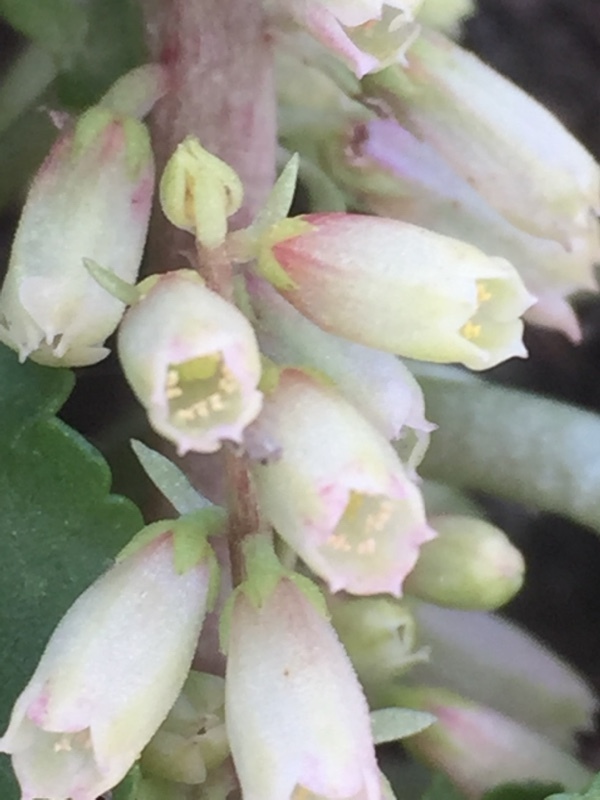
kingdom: Plantae
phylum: Tracheophyta
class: Magnoliopsida
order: Saxifragales
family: Crassulaceae
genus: Umbilicus
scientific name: Umbilicus rupestris
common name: Navelwort
